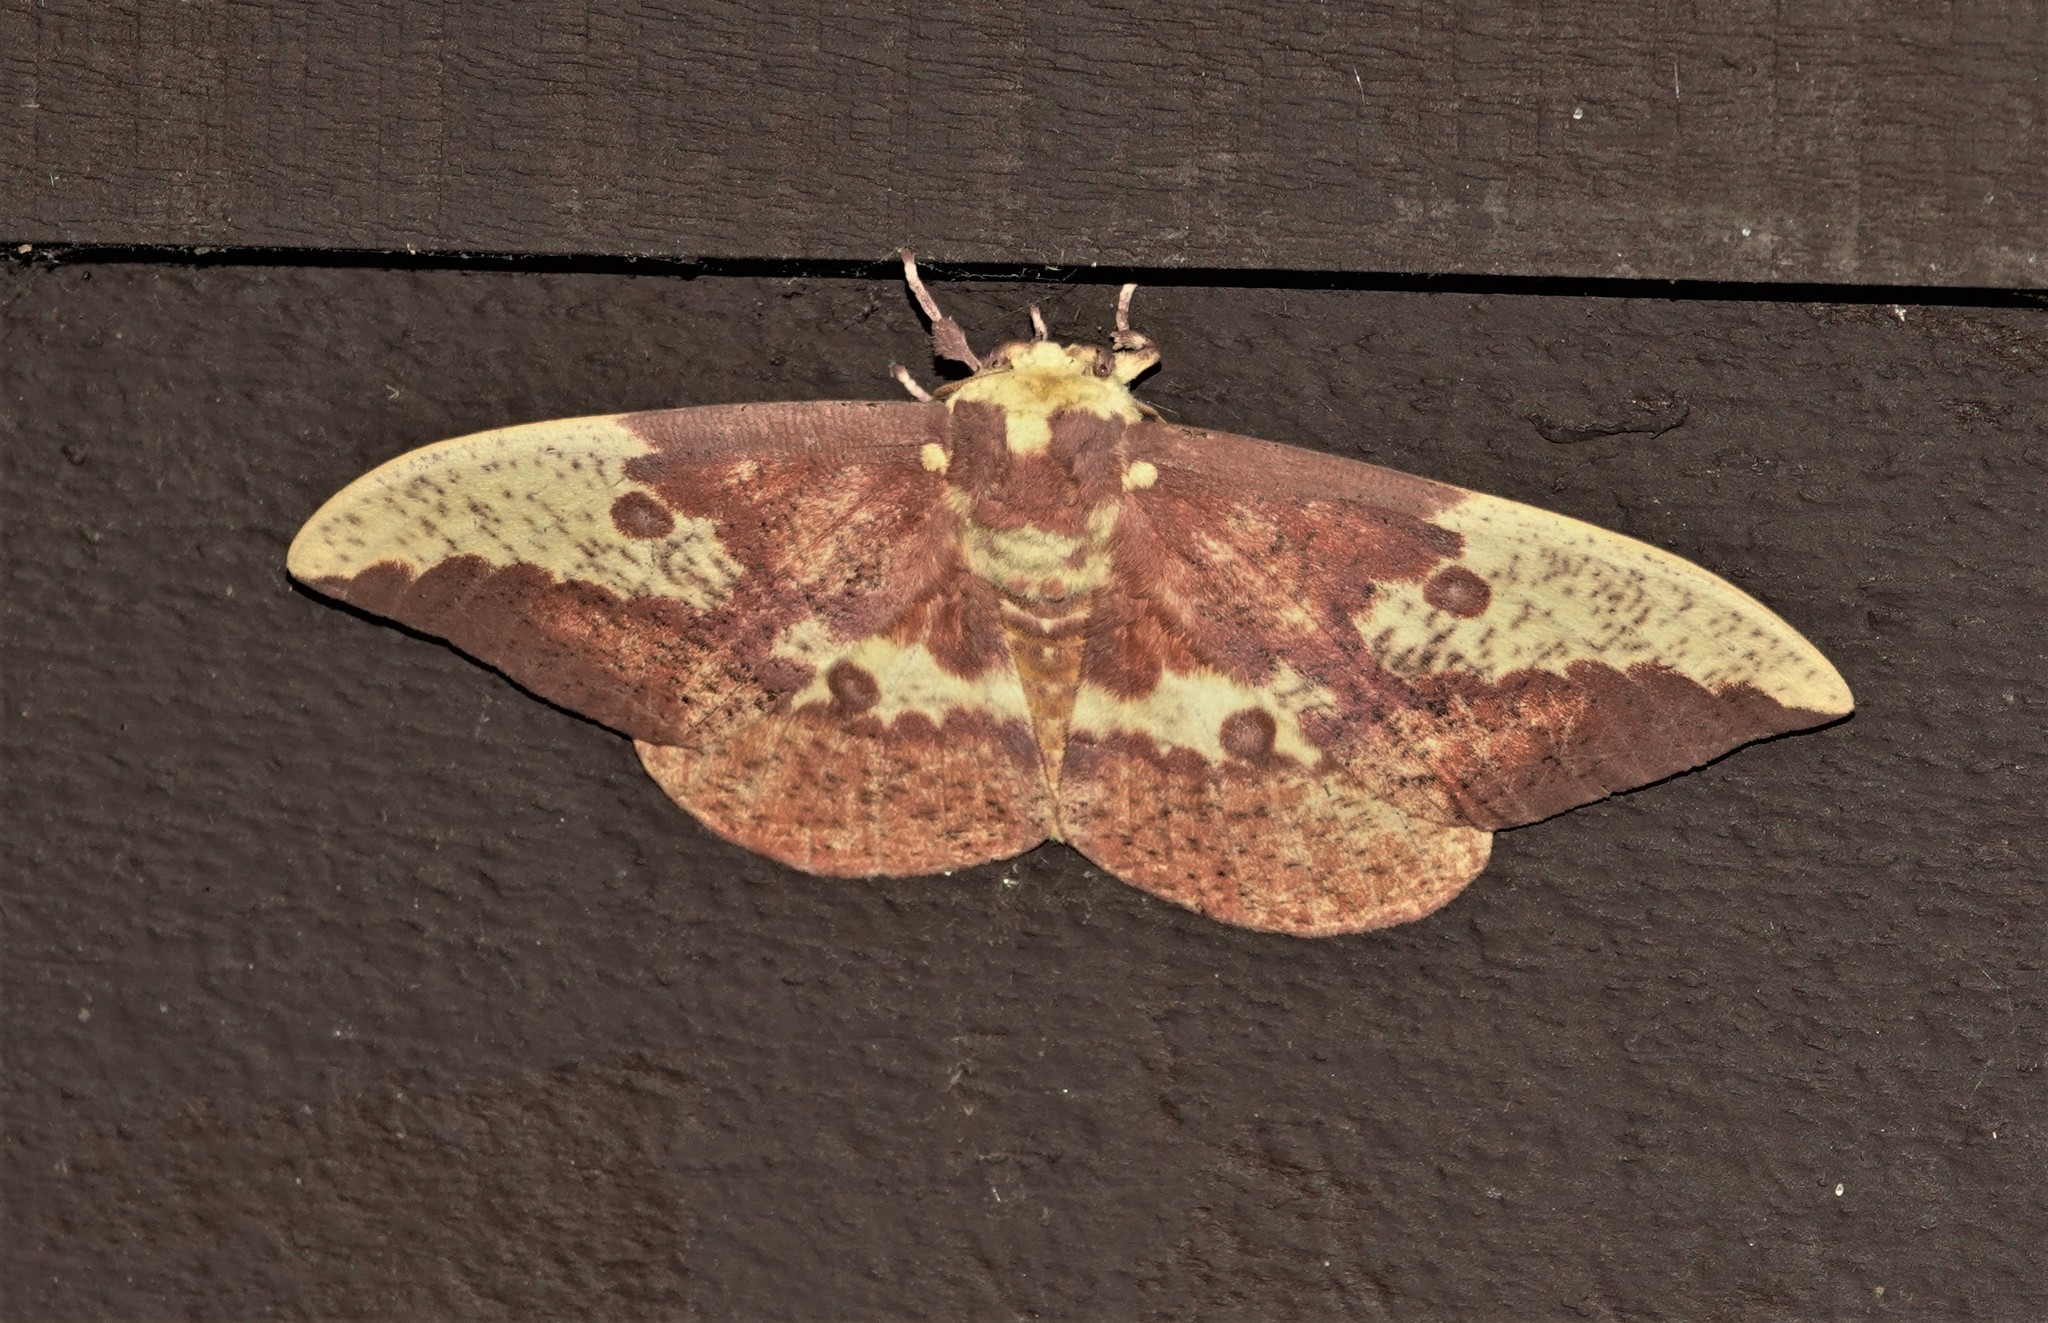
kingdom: Animalia
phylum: Arthropoda
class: Insecta
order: Lepidoptera
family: Saturniidae
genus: Eacles
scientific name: Eacles imperialis
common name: Imperial moth
